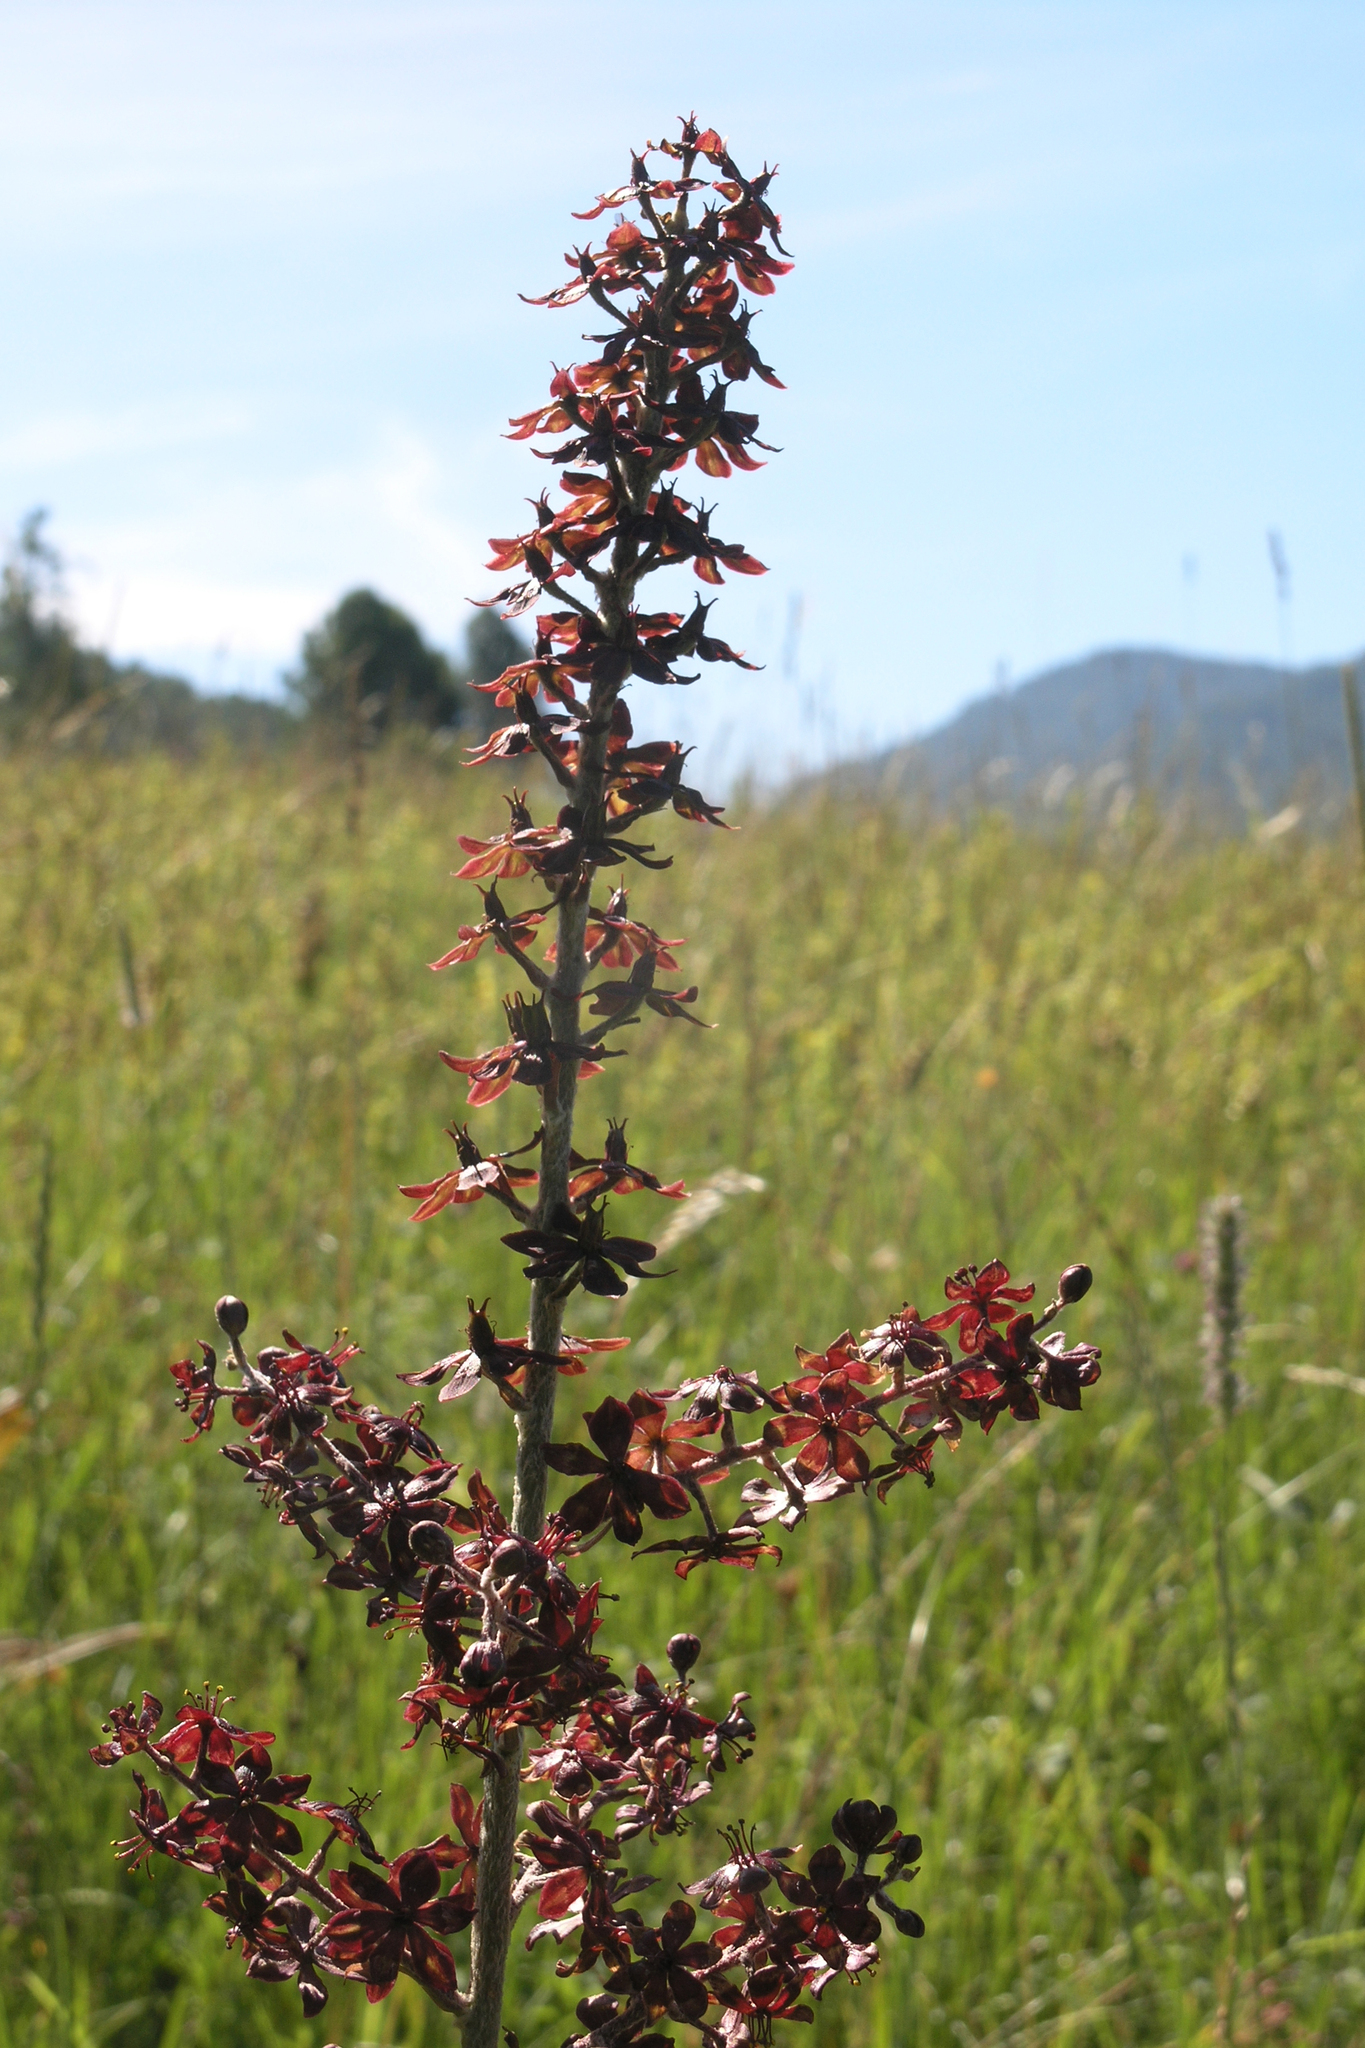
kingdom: Plantae
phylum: Tracheophyta
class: Liliopsida
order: Liliales
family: Melanthiaceae
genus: Veratrum
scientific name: Veratrum nigrum
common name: Black veratrum
